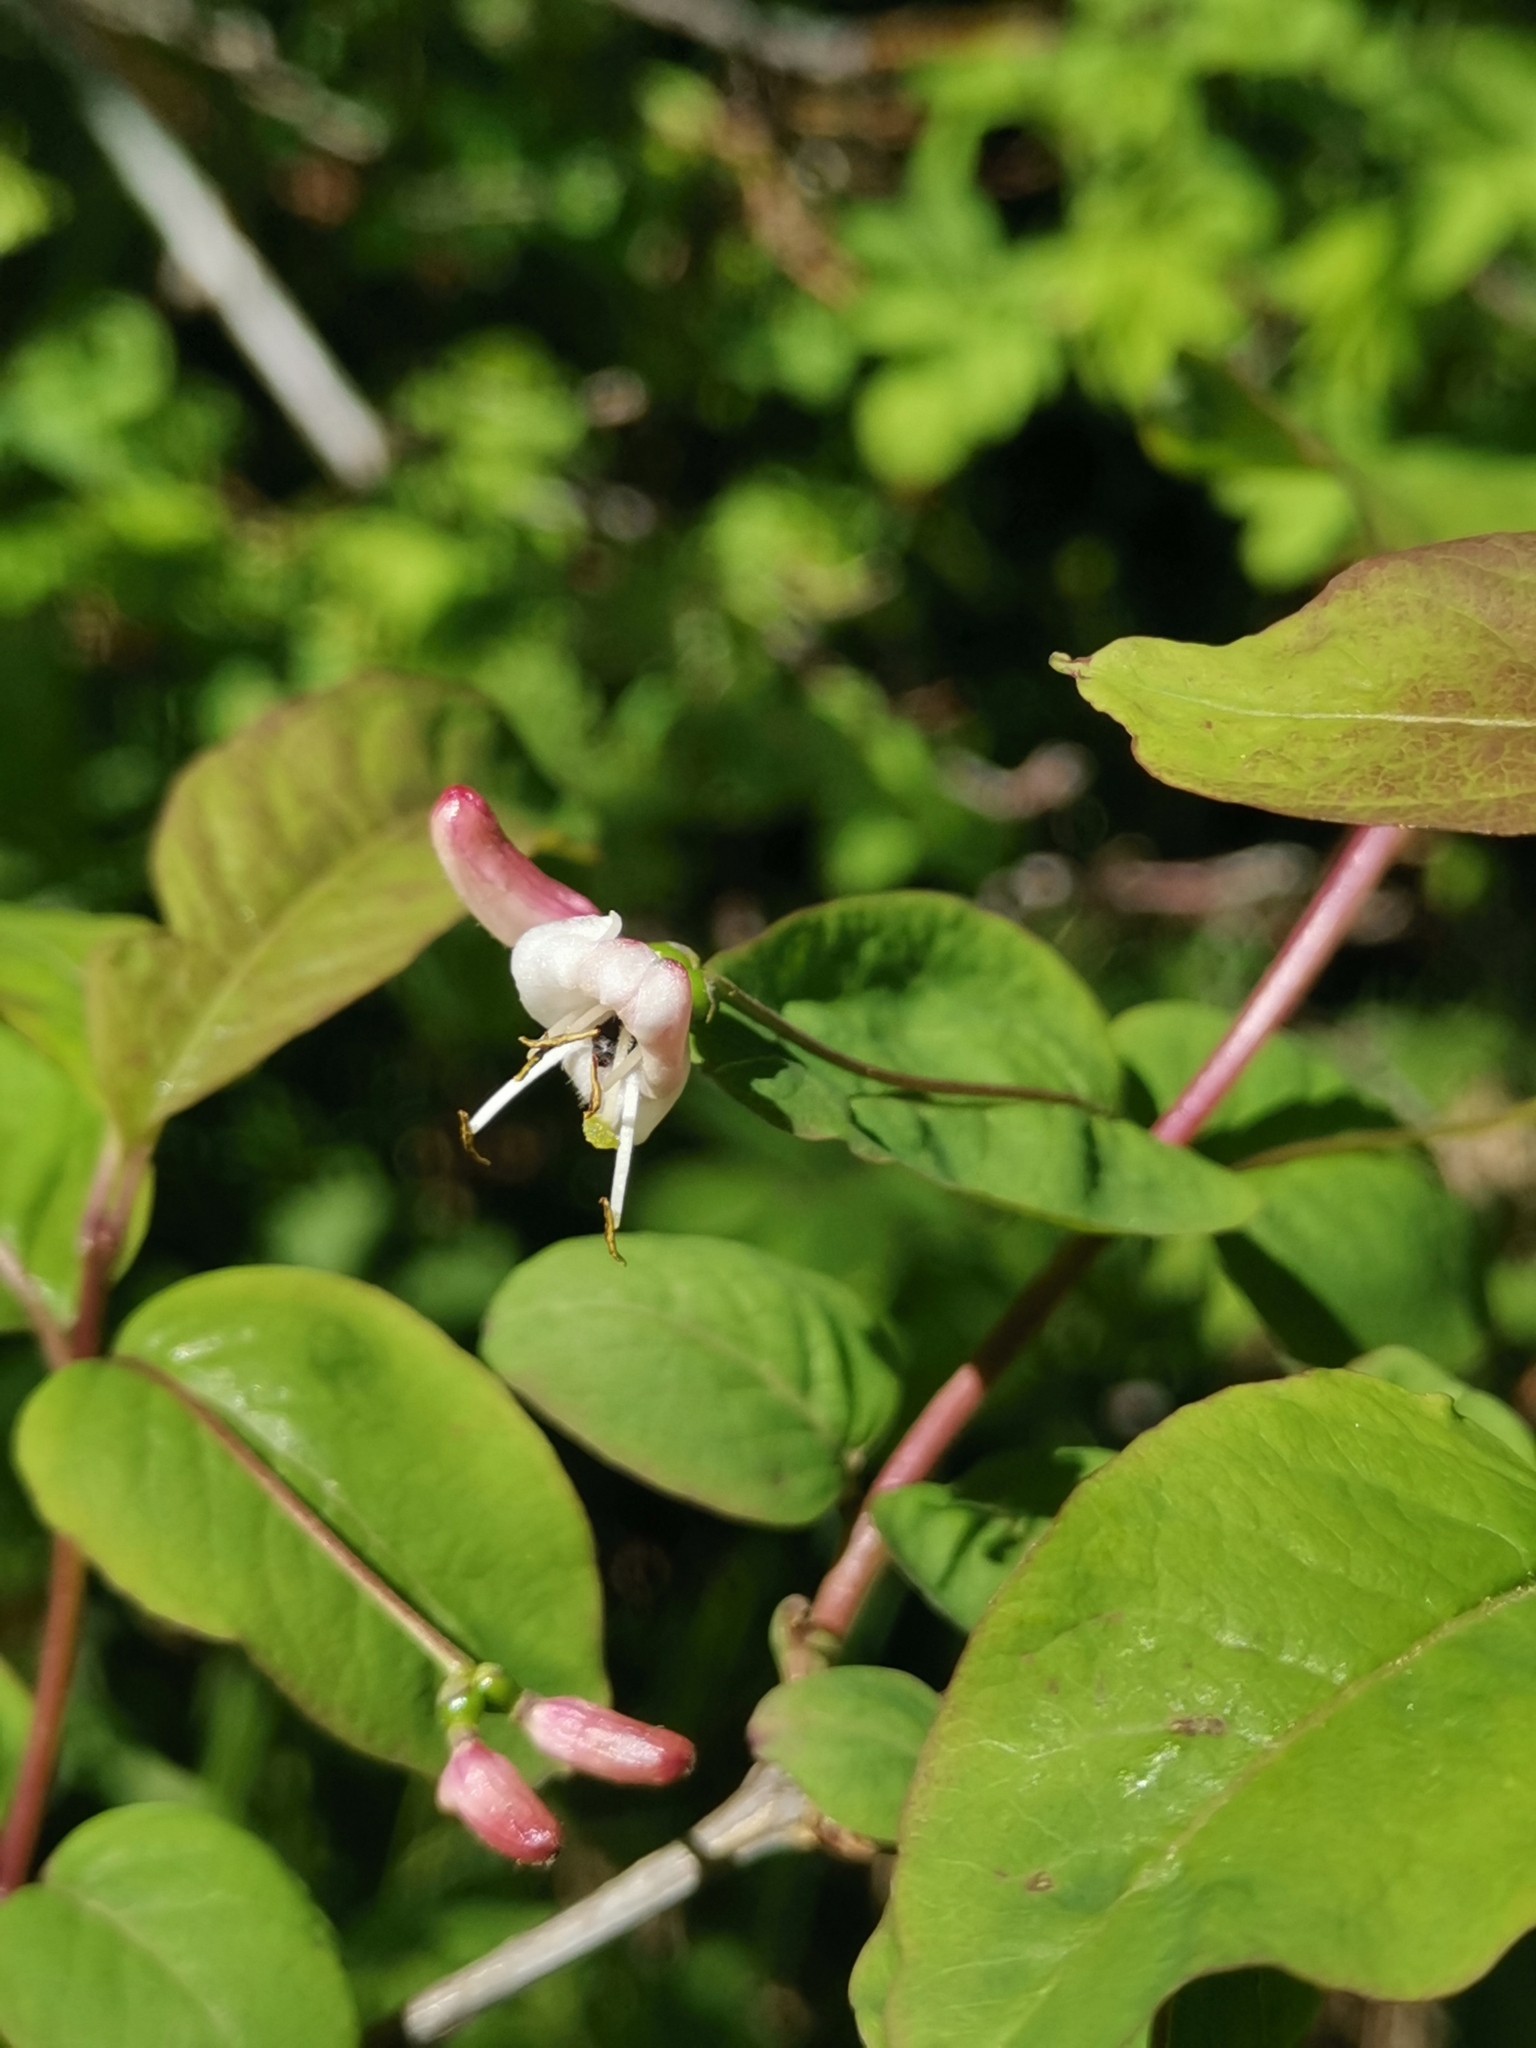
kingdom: Plantae
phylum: Tracheophyta
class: Magnoliopsida
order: Dipsacales
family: Caprifoliaceae
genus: Lonicera
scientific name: Lonicera nigra
